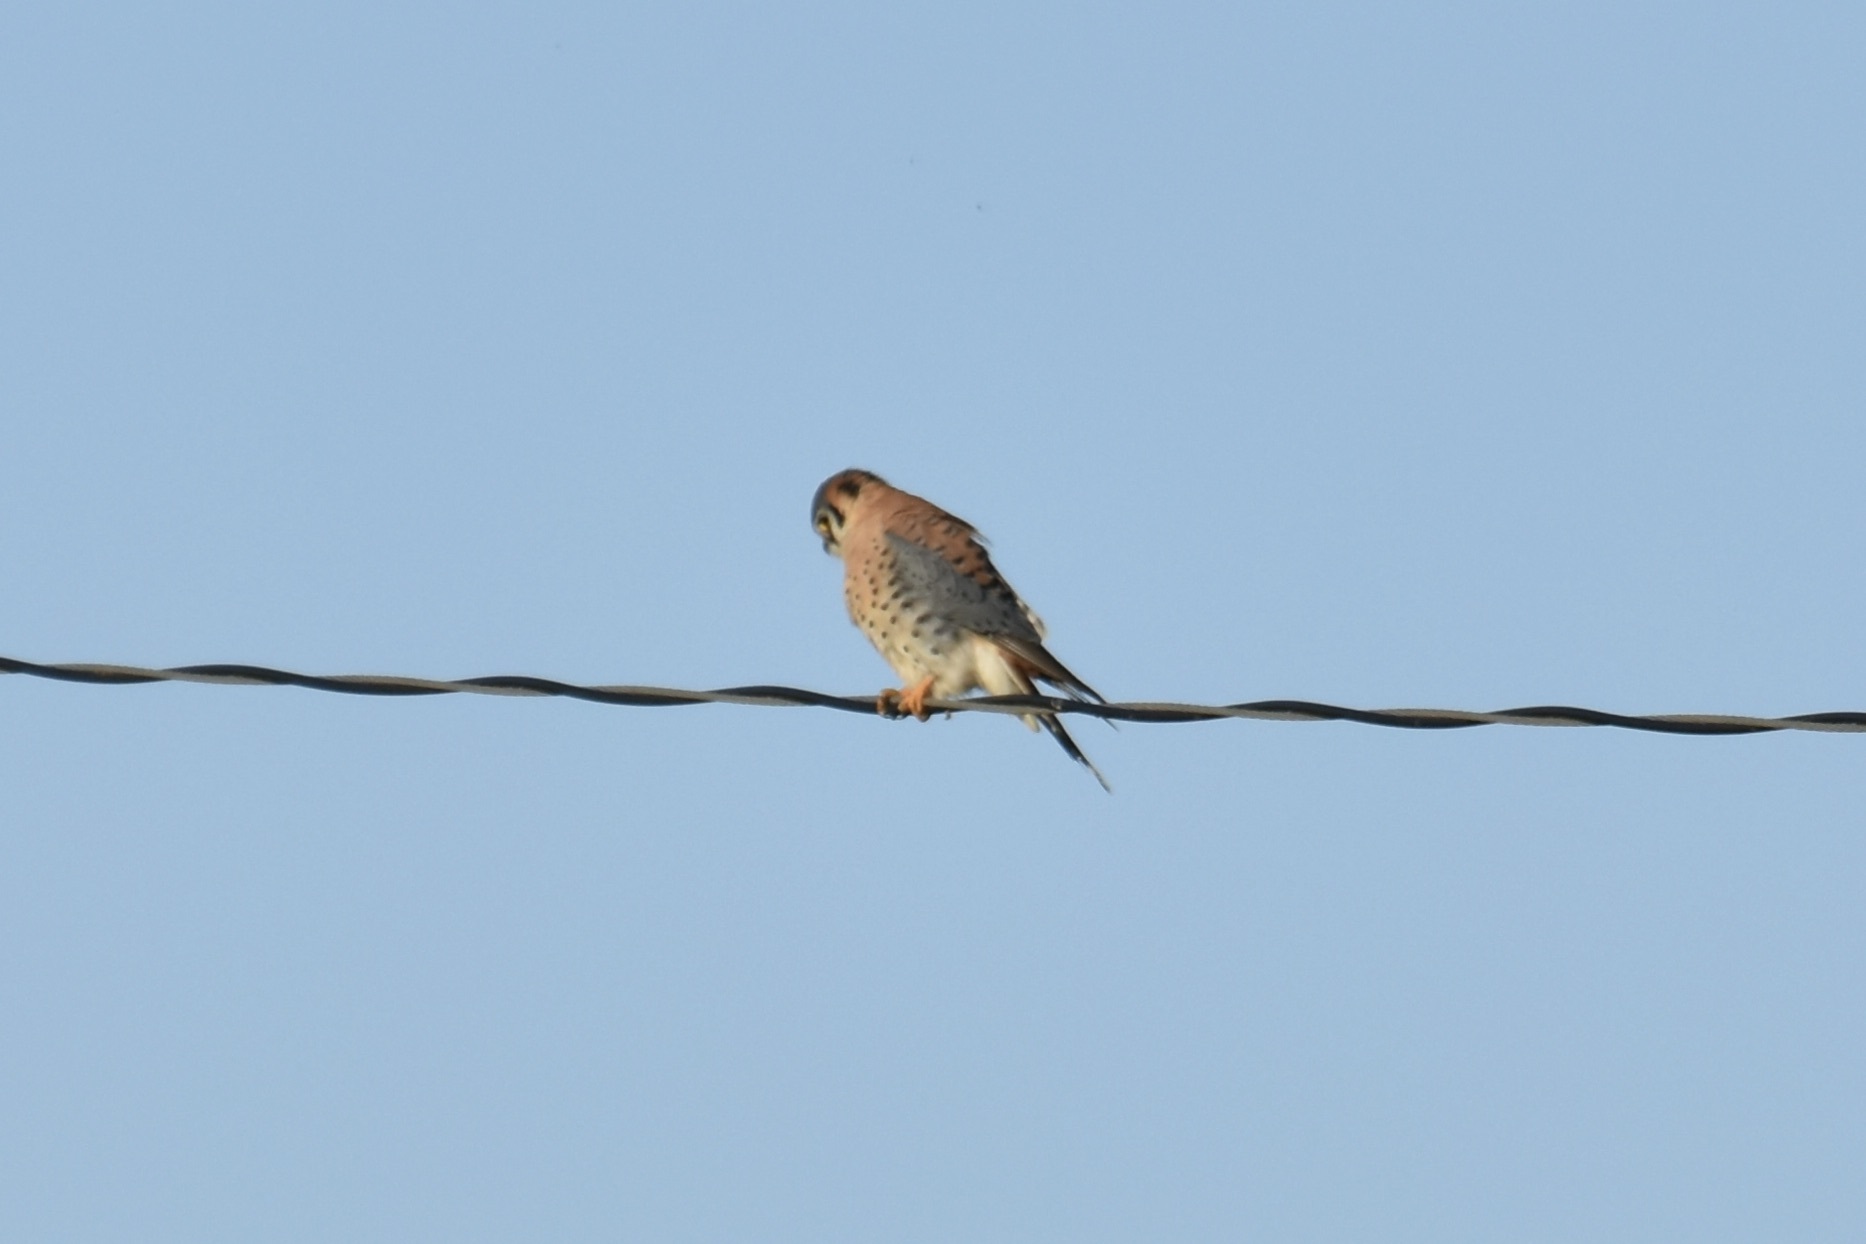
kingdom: Animalia
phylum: Chordata
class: Aves
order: Falconiformes
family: Falconidae
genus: Falco
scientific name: Falco sparverius
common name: American kestrel
